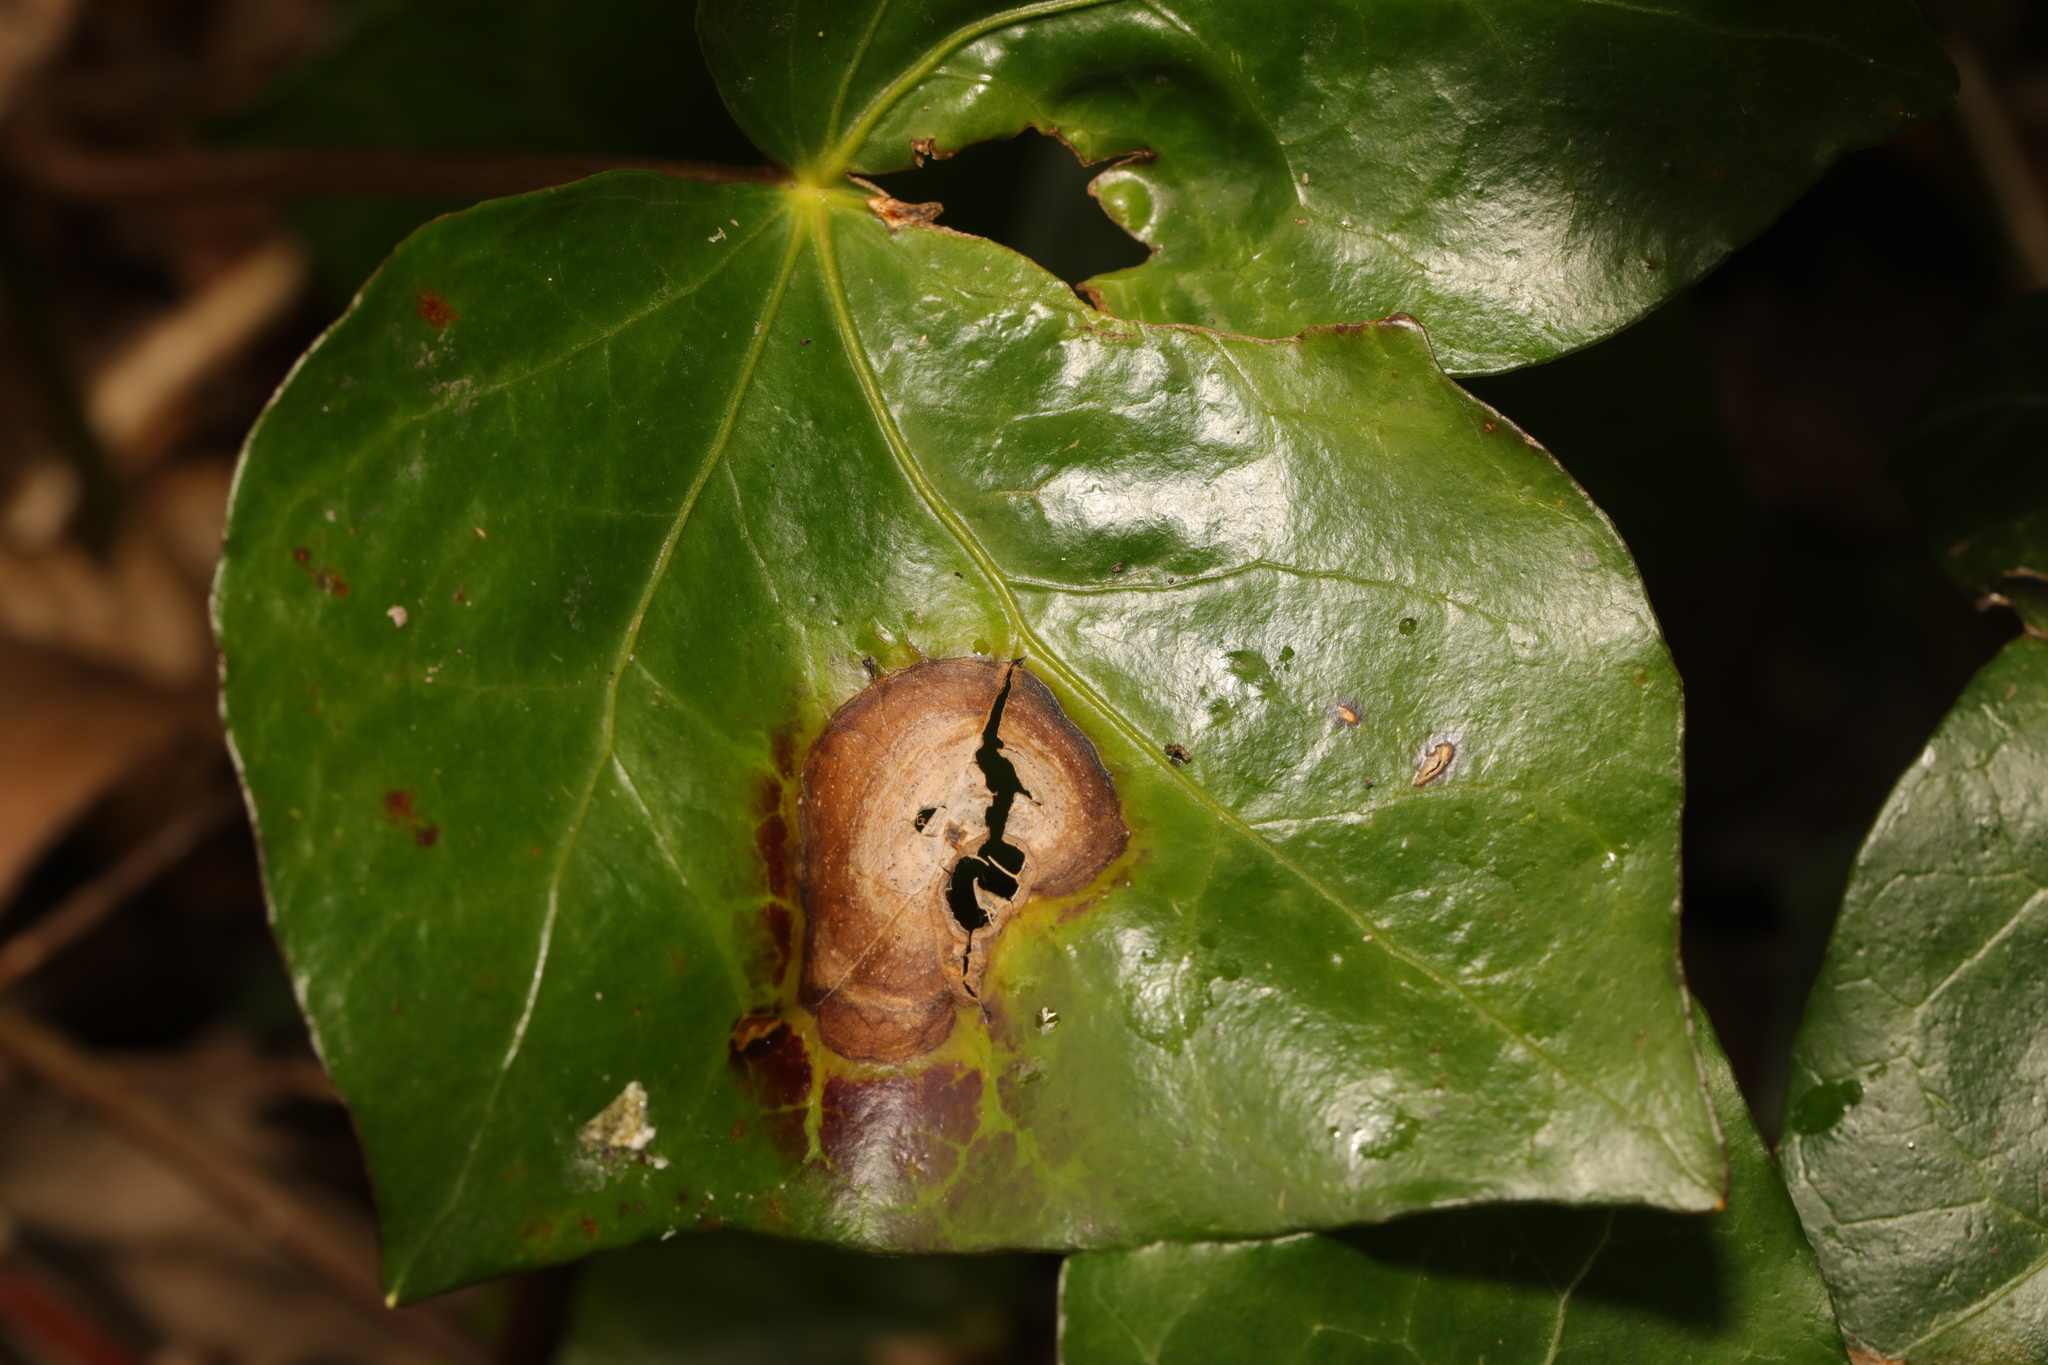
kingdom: Fungi
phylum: Ascomycota
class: Dothideomycetes
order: Pleosporales
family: Didymellaceae
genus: Boeremia
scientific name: Boeremia hedericola
